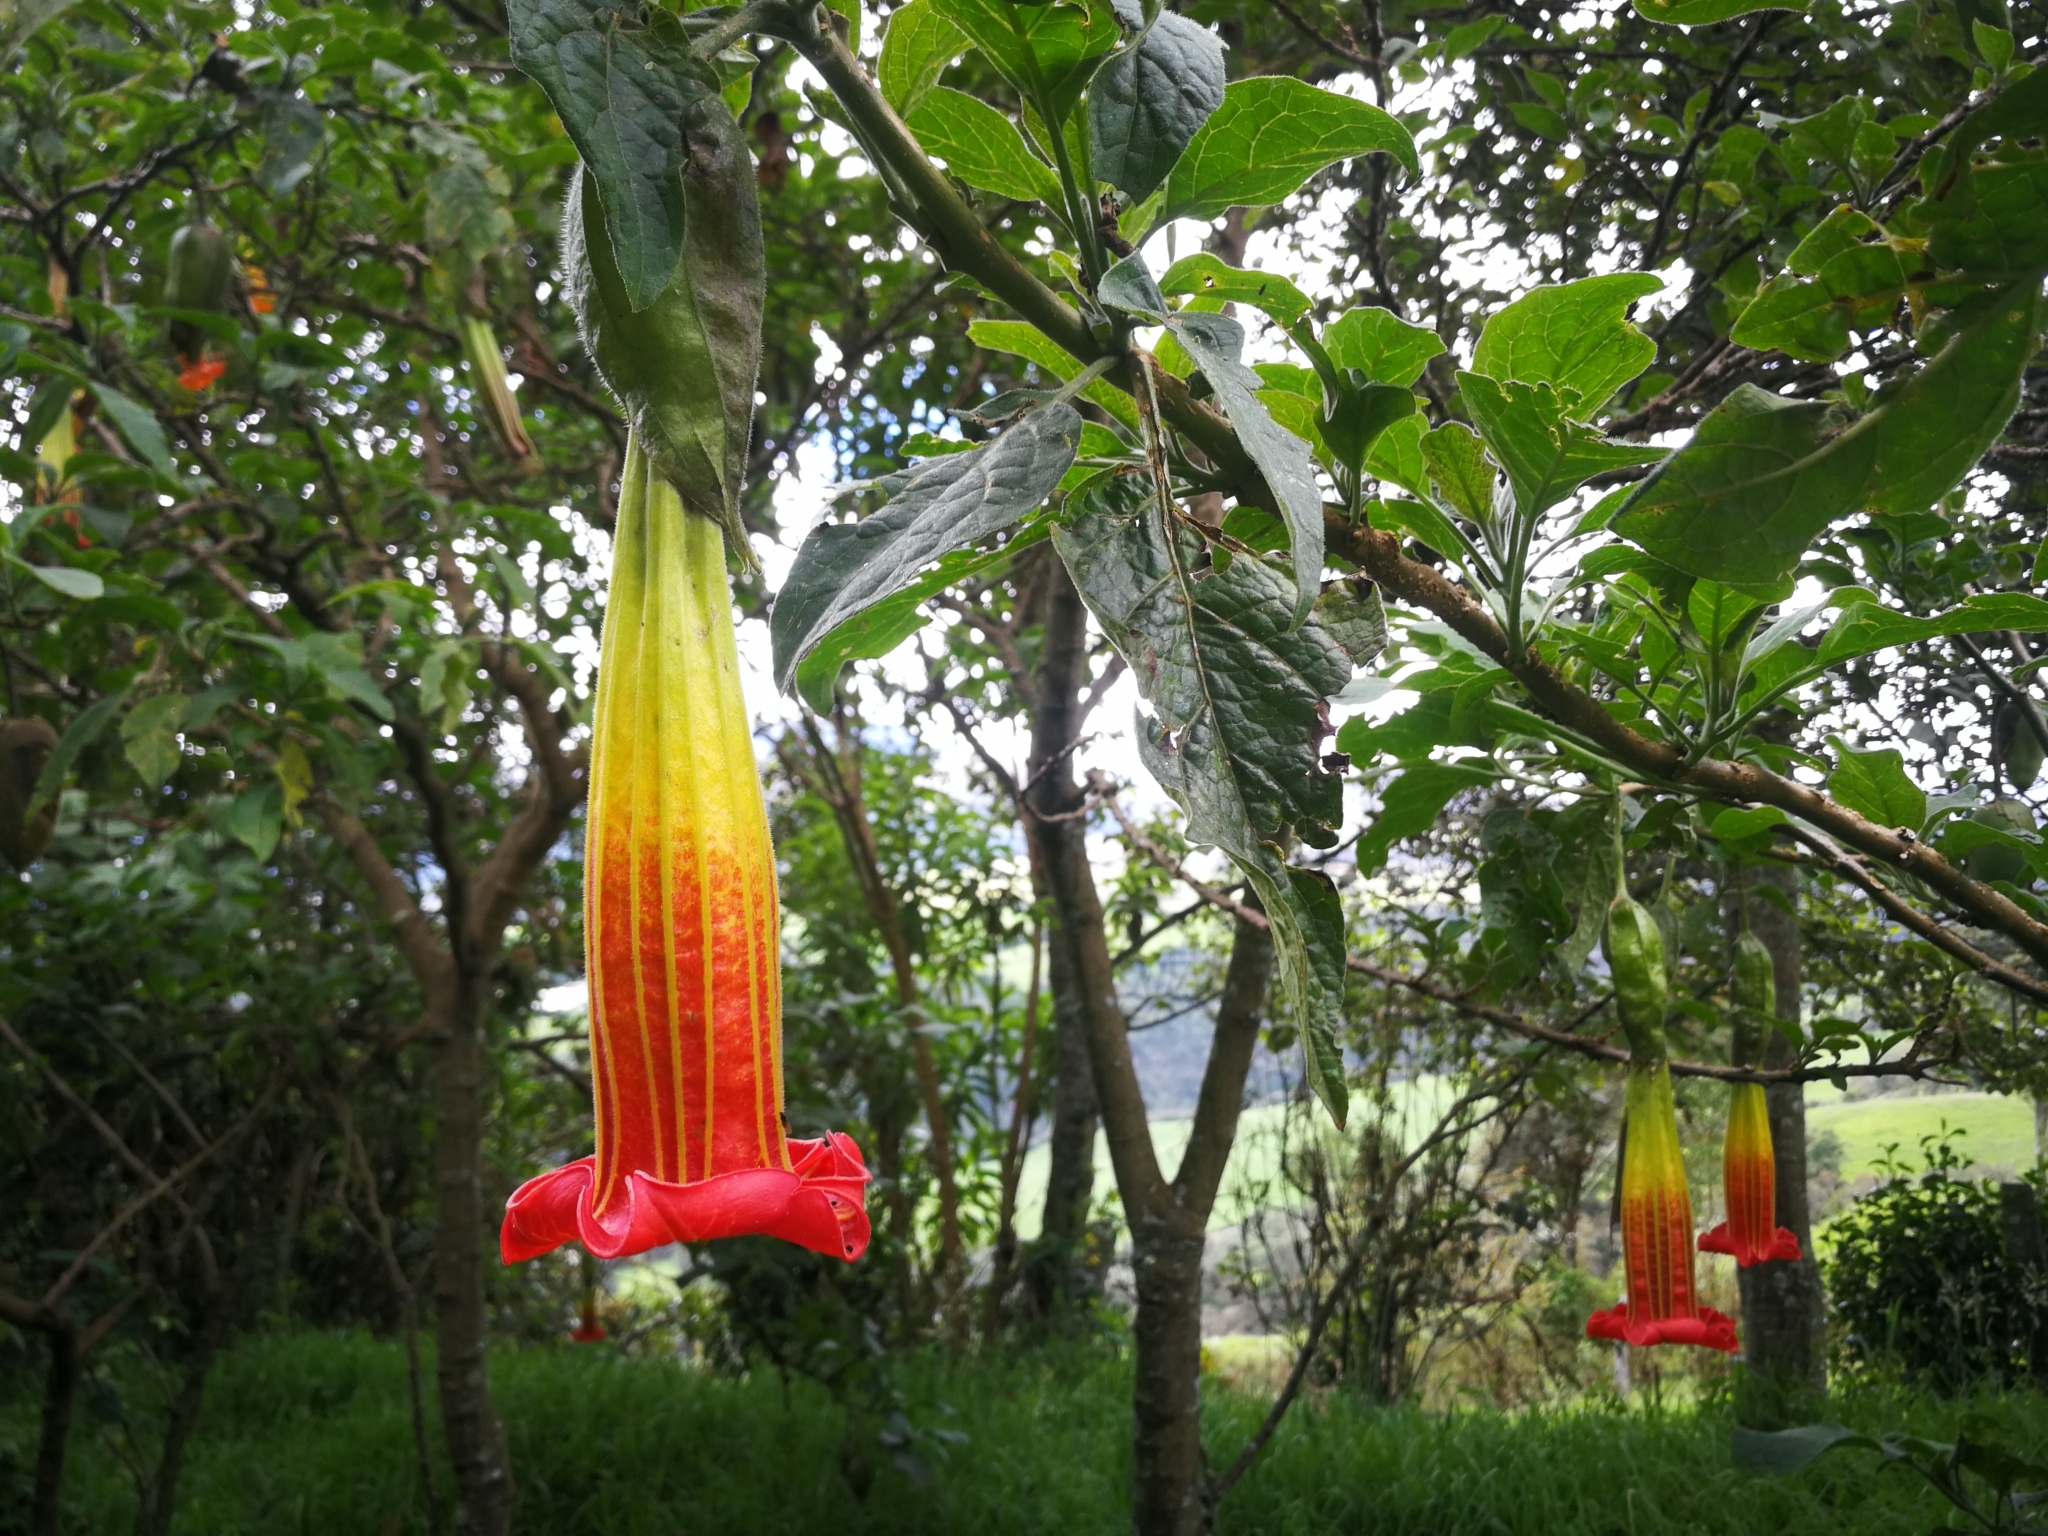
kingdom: Plantae
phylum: Tracheophyta
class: Magnoliopsida
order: Solanales
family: Solanaceae
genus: Brugmansia
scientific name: Brugmansia sanguinea
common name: Red floripontio
